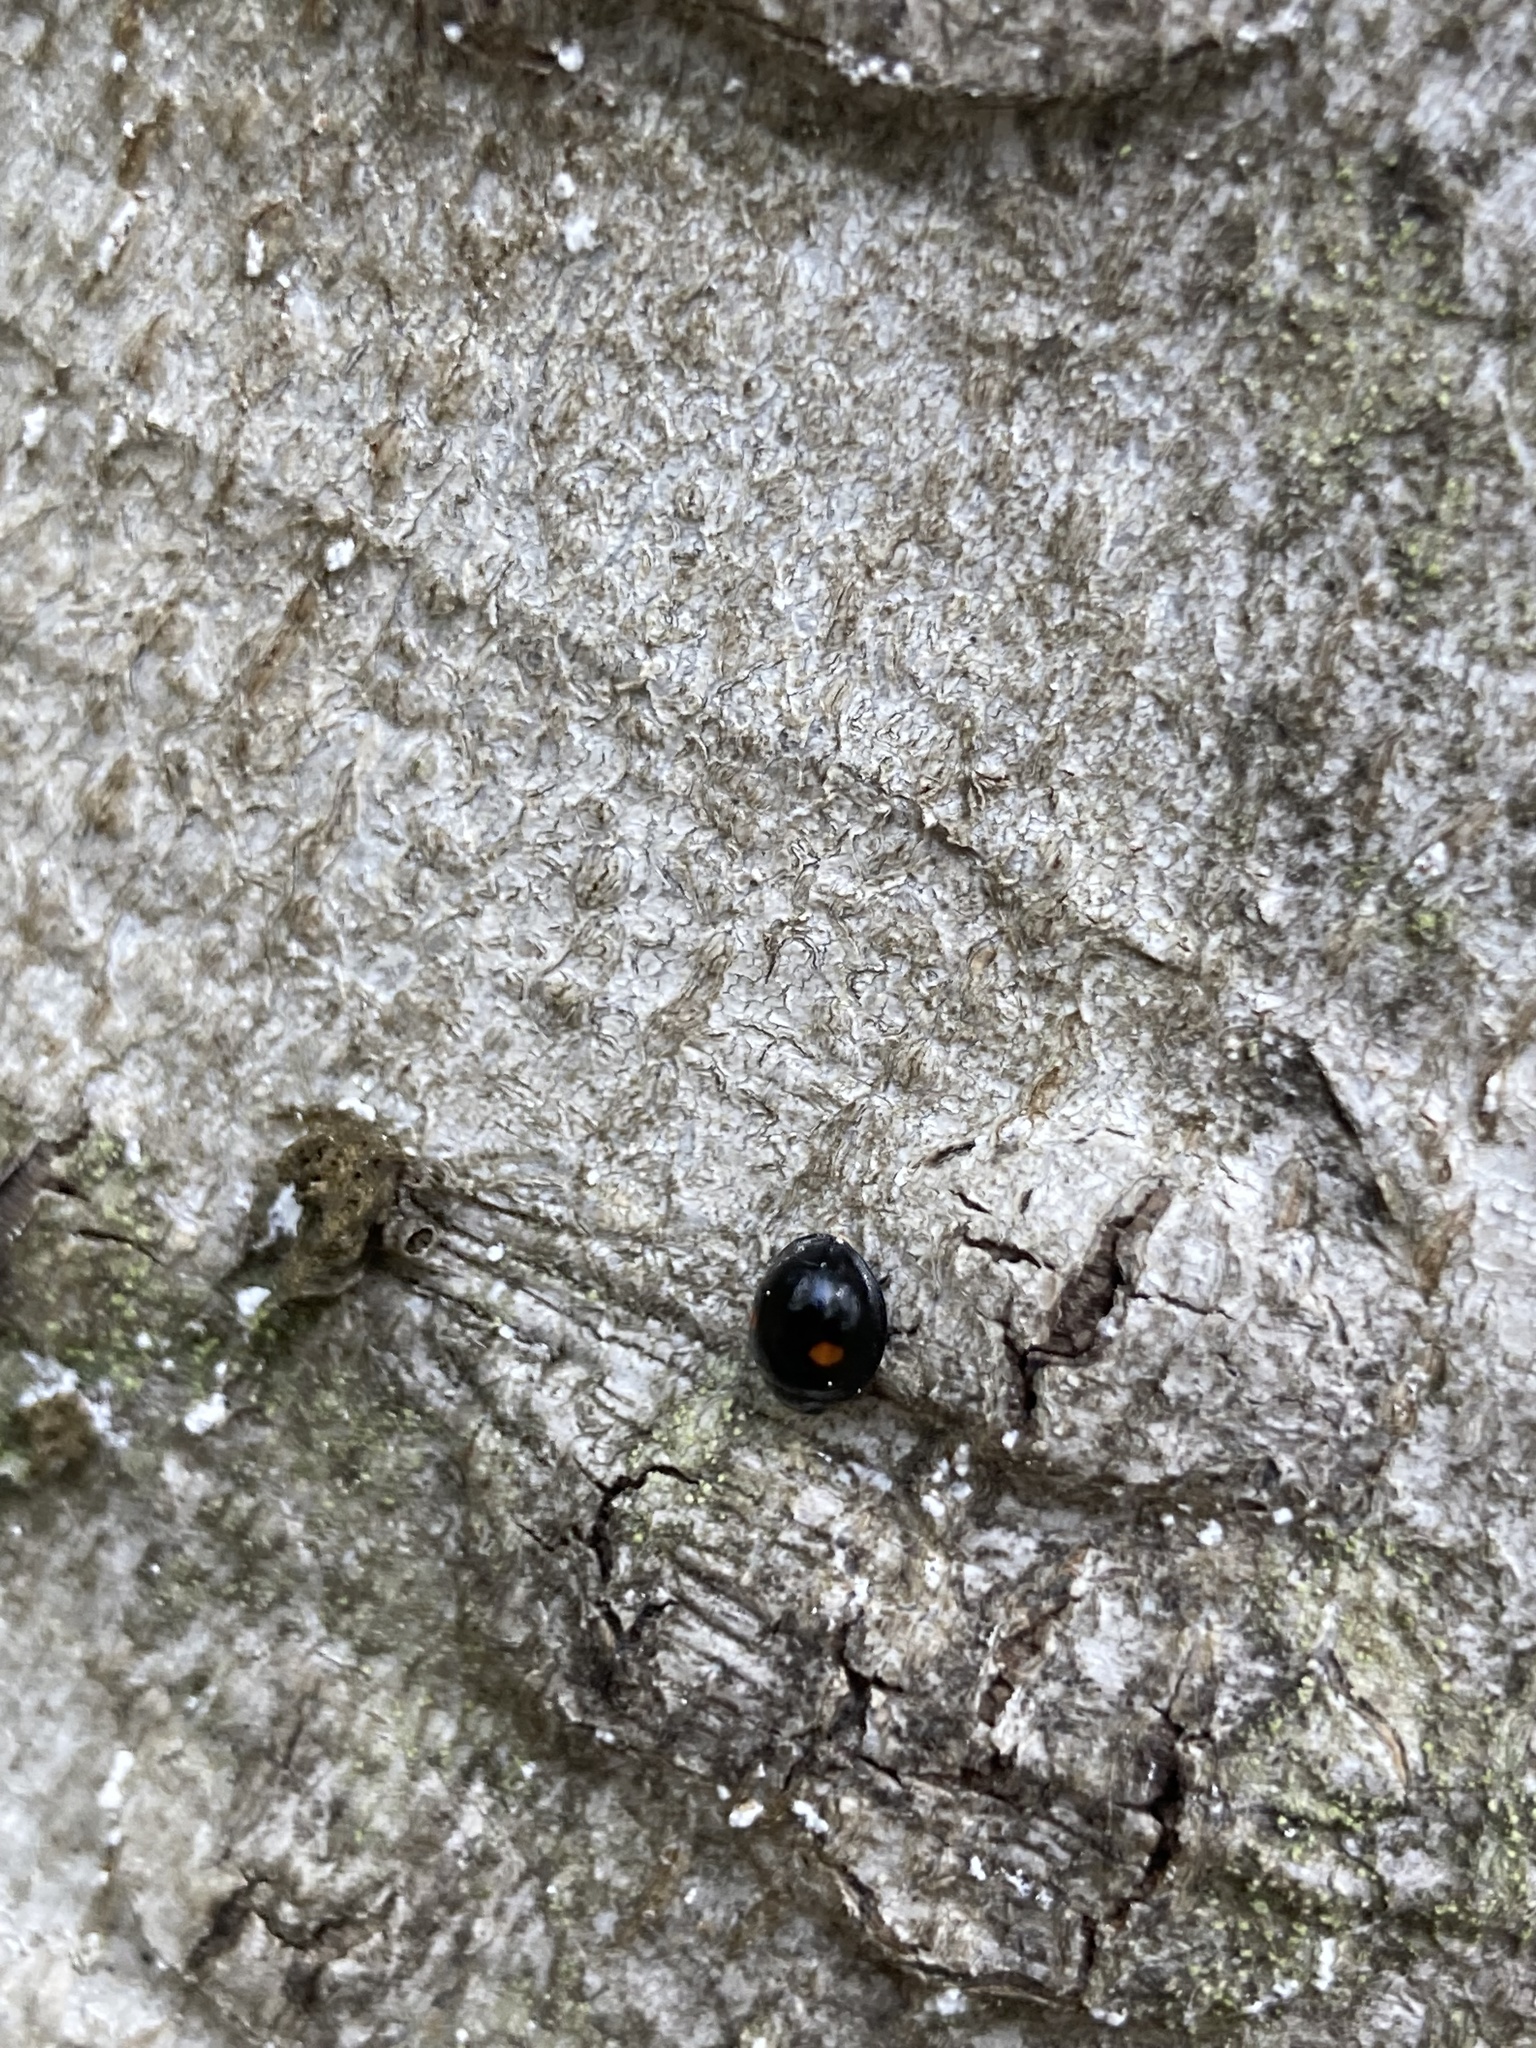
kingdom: Animalia
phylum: Arthropoda
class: Insecta
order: Coleoptera
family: Coccinellidae
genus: Chilocorus
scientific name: Chilocorus stigma
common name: Twicestabbed lady beetle
